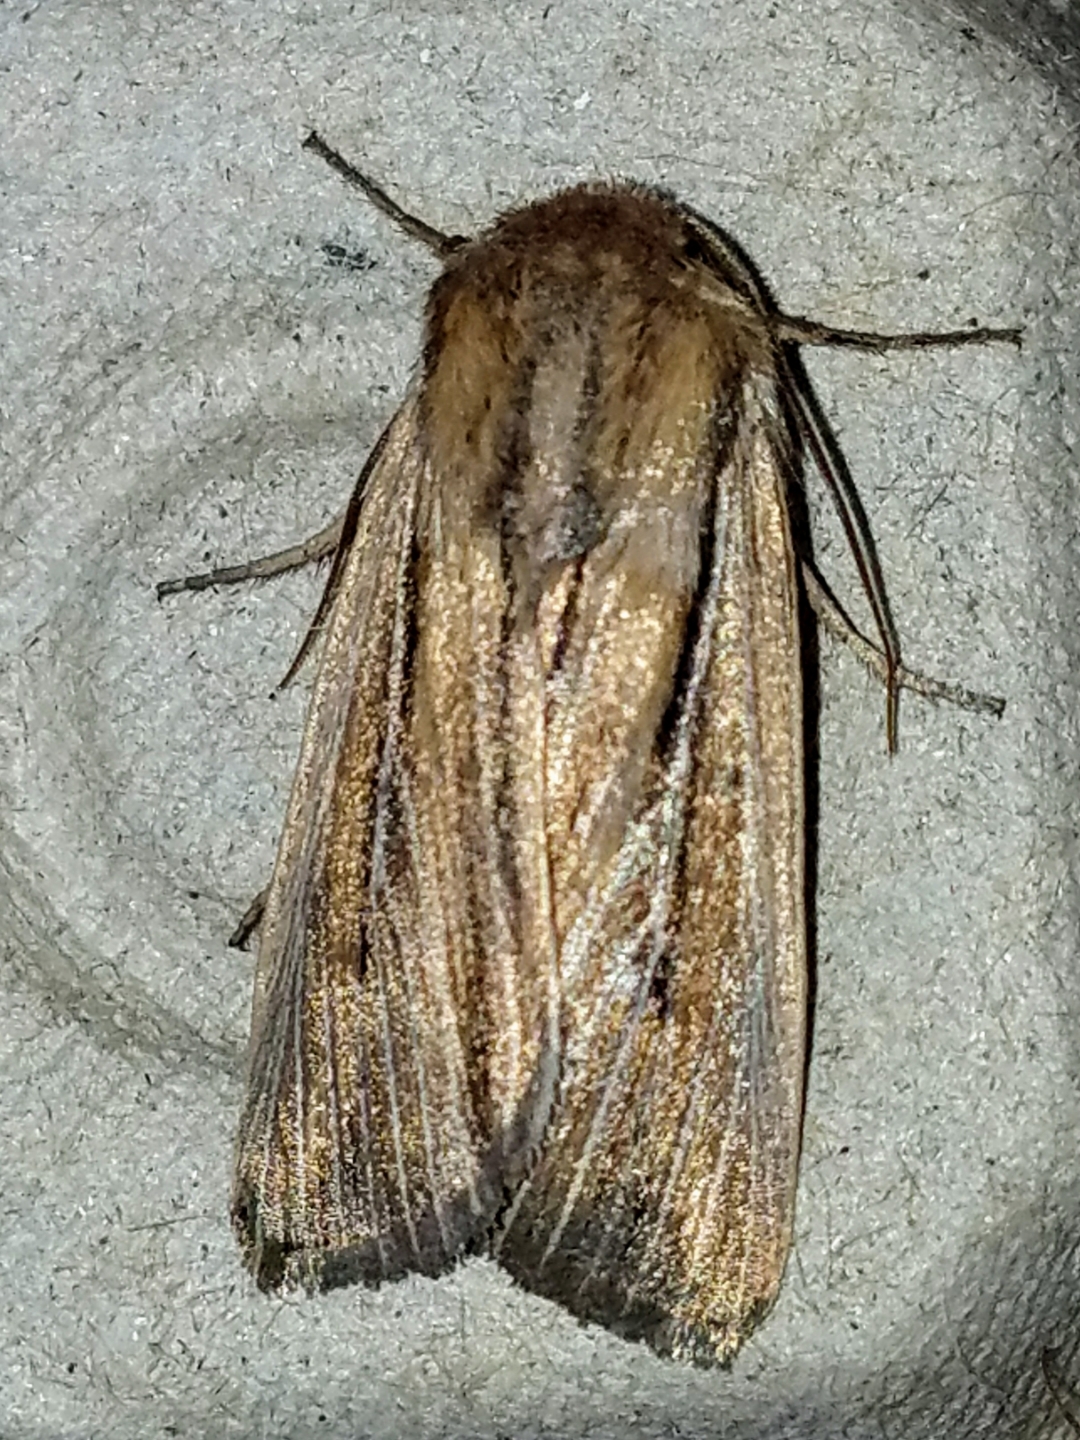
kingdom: Animalia
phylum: Arthropoda
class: Insecta
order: Lepidoptera
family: Noctuidae
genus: Leucania
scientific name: Leucania commoides
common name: Two-lined wainscot
